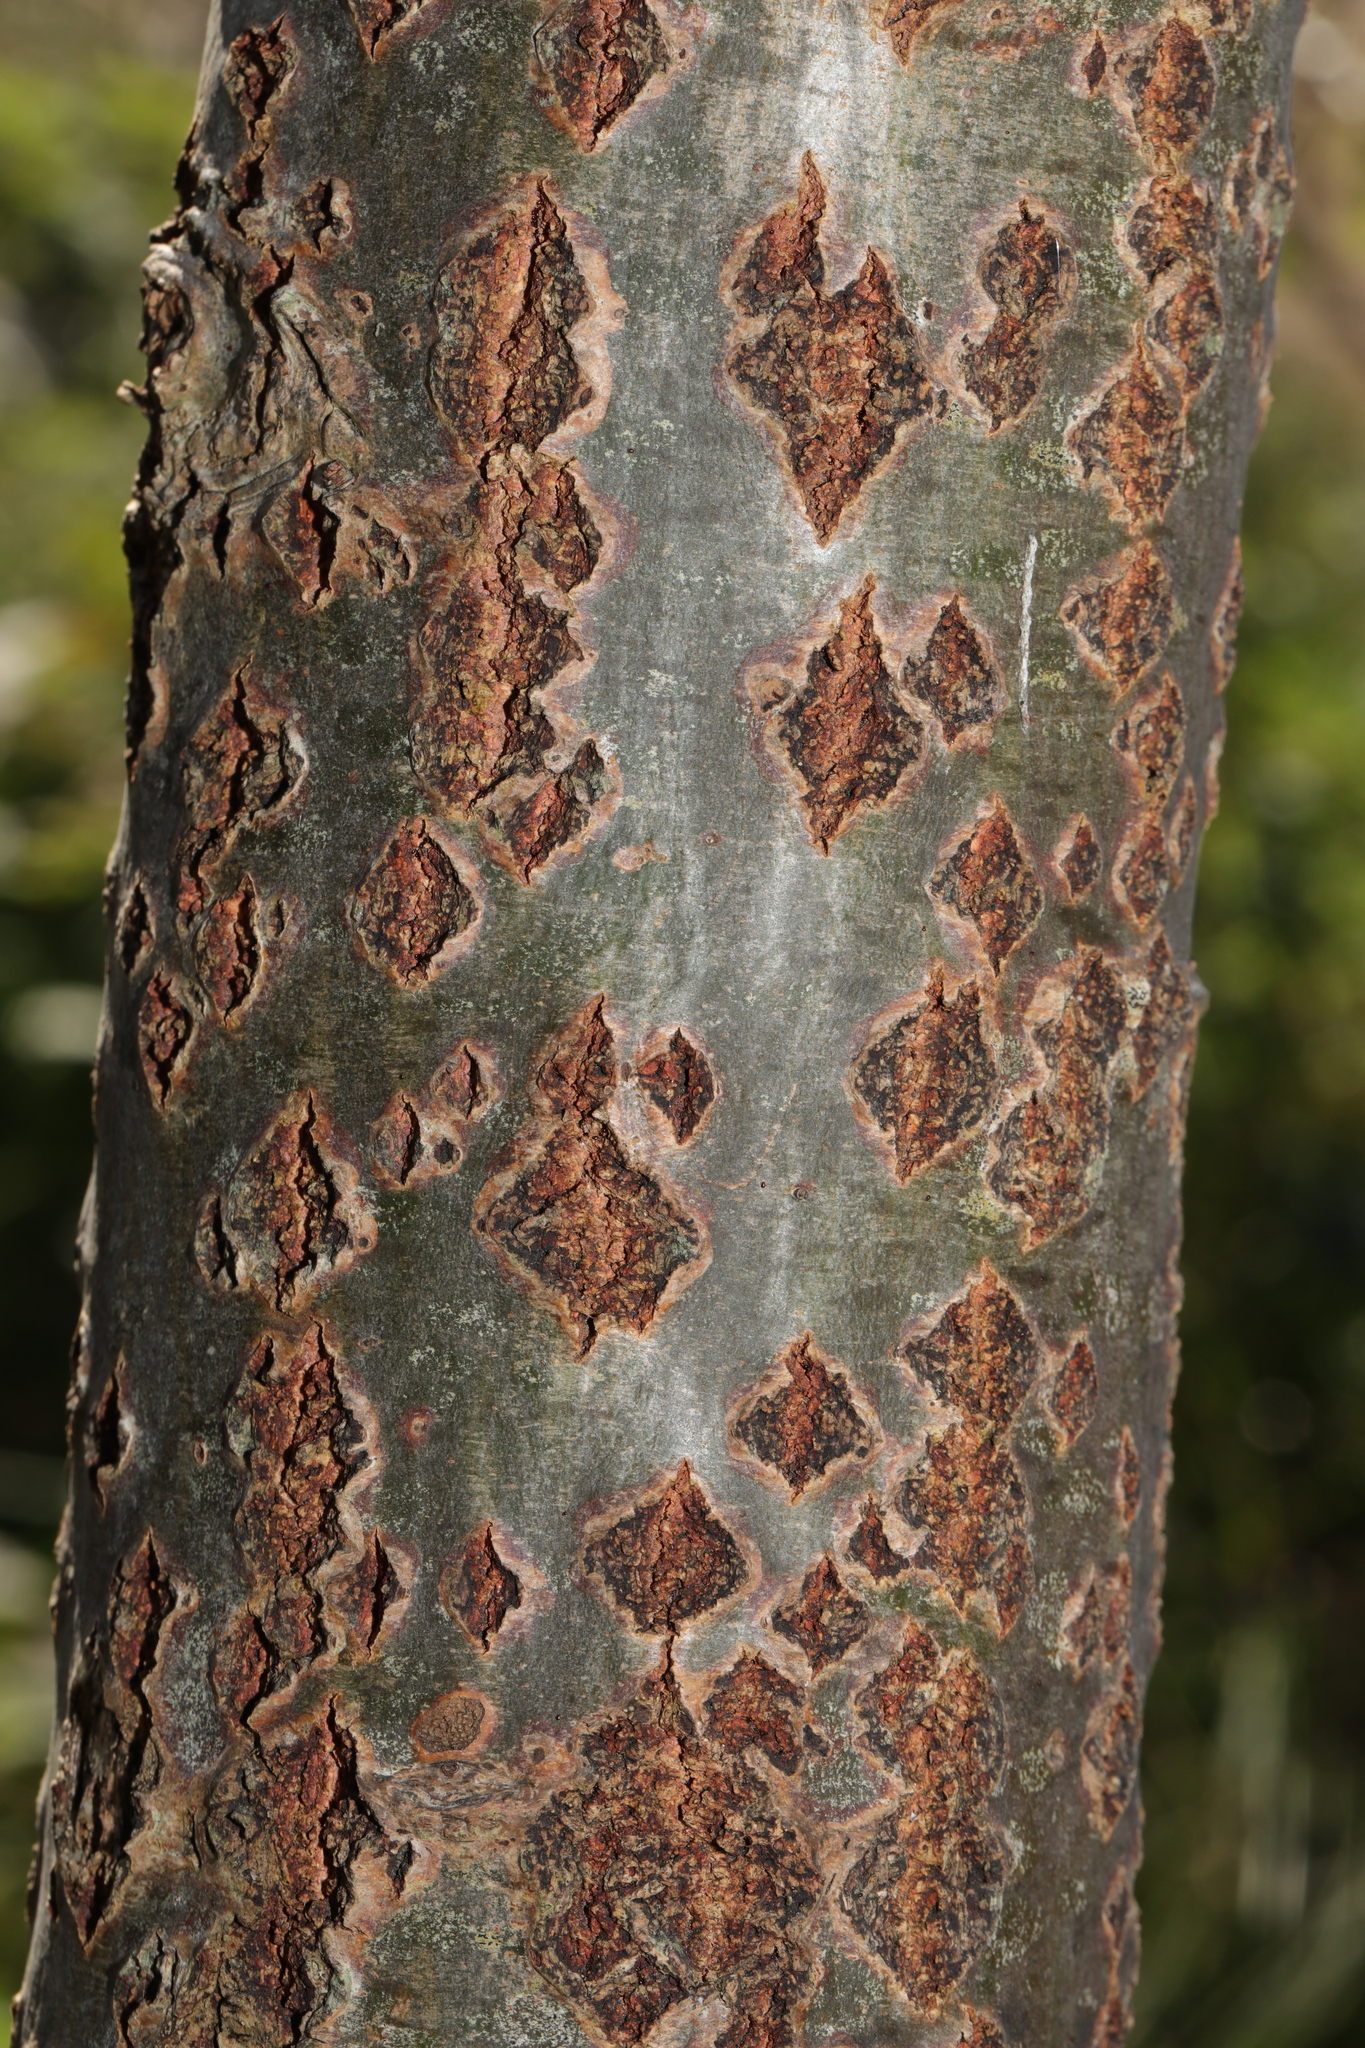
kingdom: Plantae
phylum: Tracheophyta
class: Magnoliopsida
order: Malpighiales
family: Salicaceae
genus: Populus
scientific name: Populus alba
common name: White poplar
